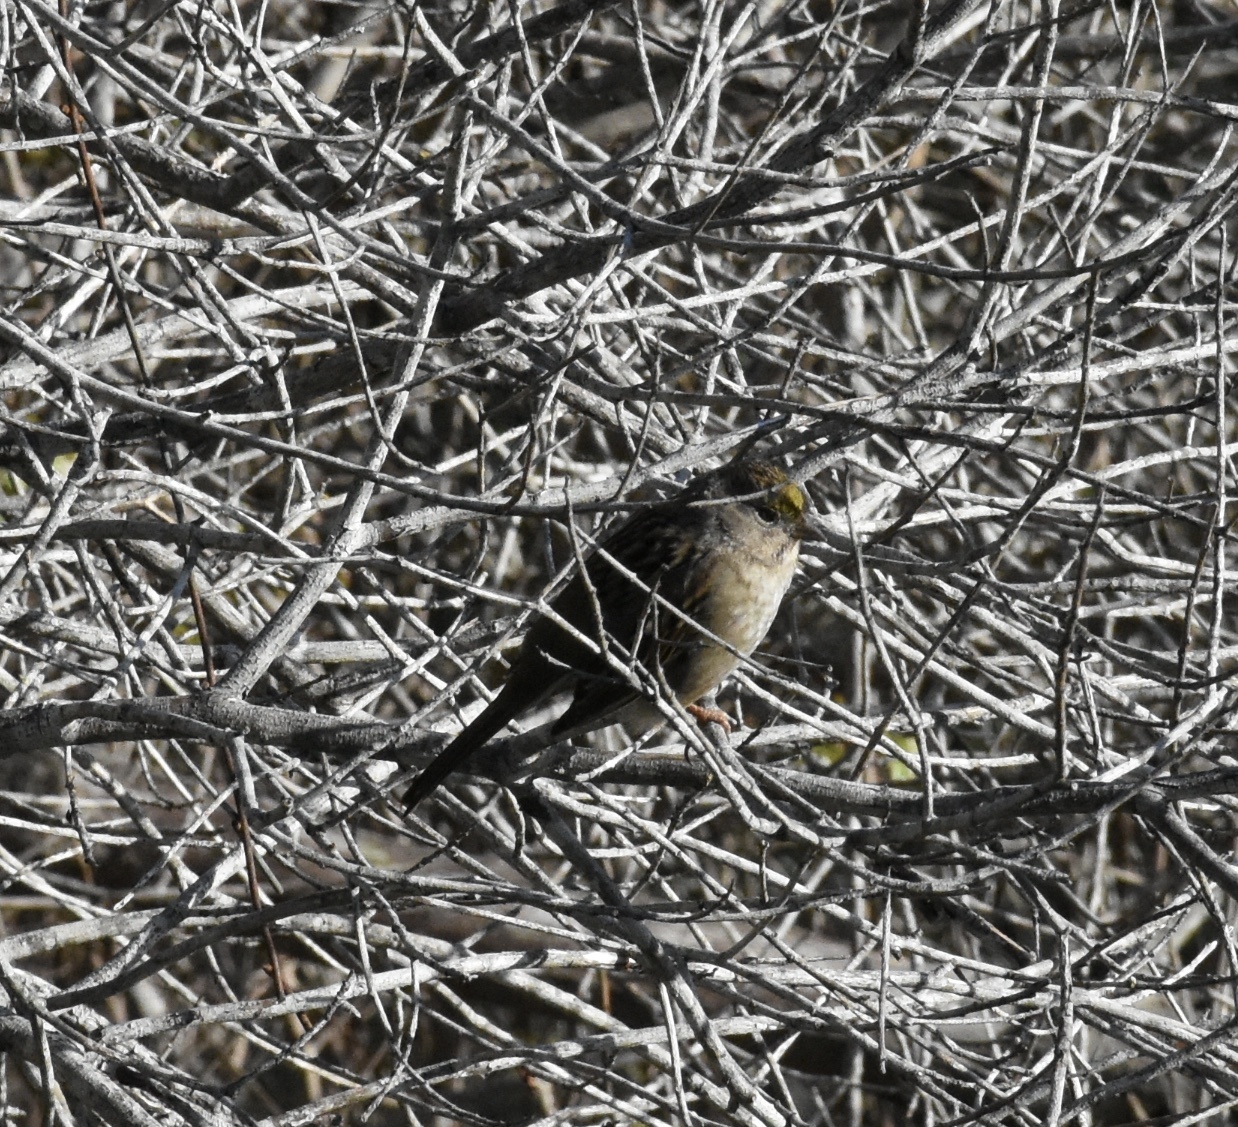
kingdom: Animalia
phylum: Chordata
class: Aves
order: Passeriformes
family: Passerellidae
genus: Zonotrichia
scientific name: Zonotrichia atricapilla
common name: Golden-crowned sparrow
